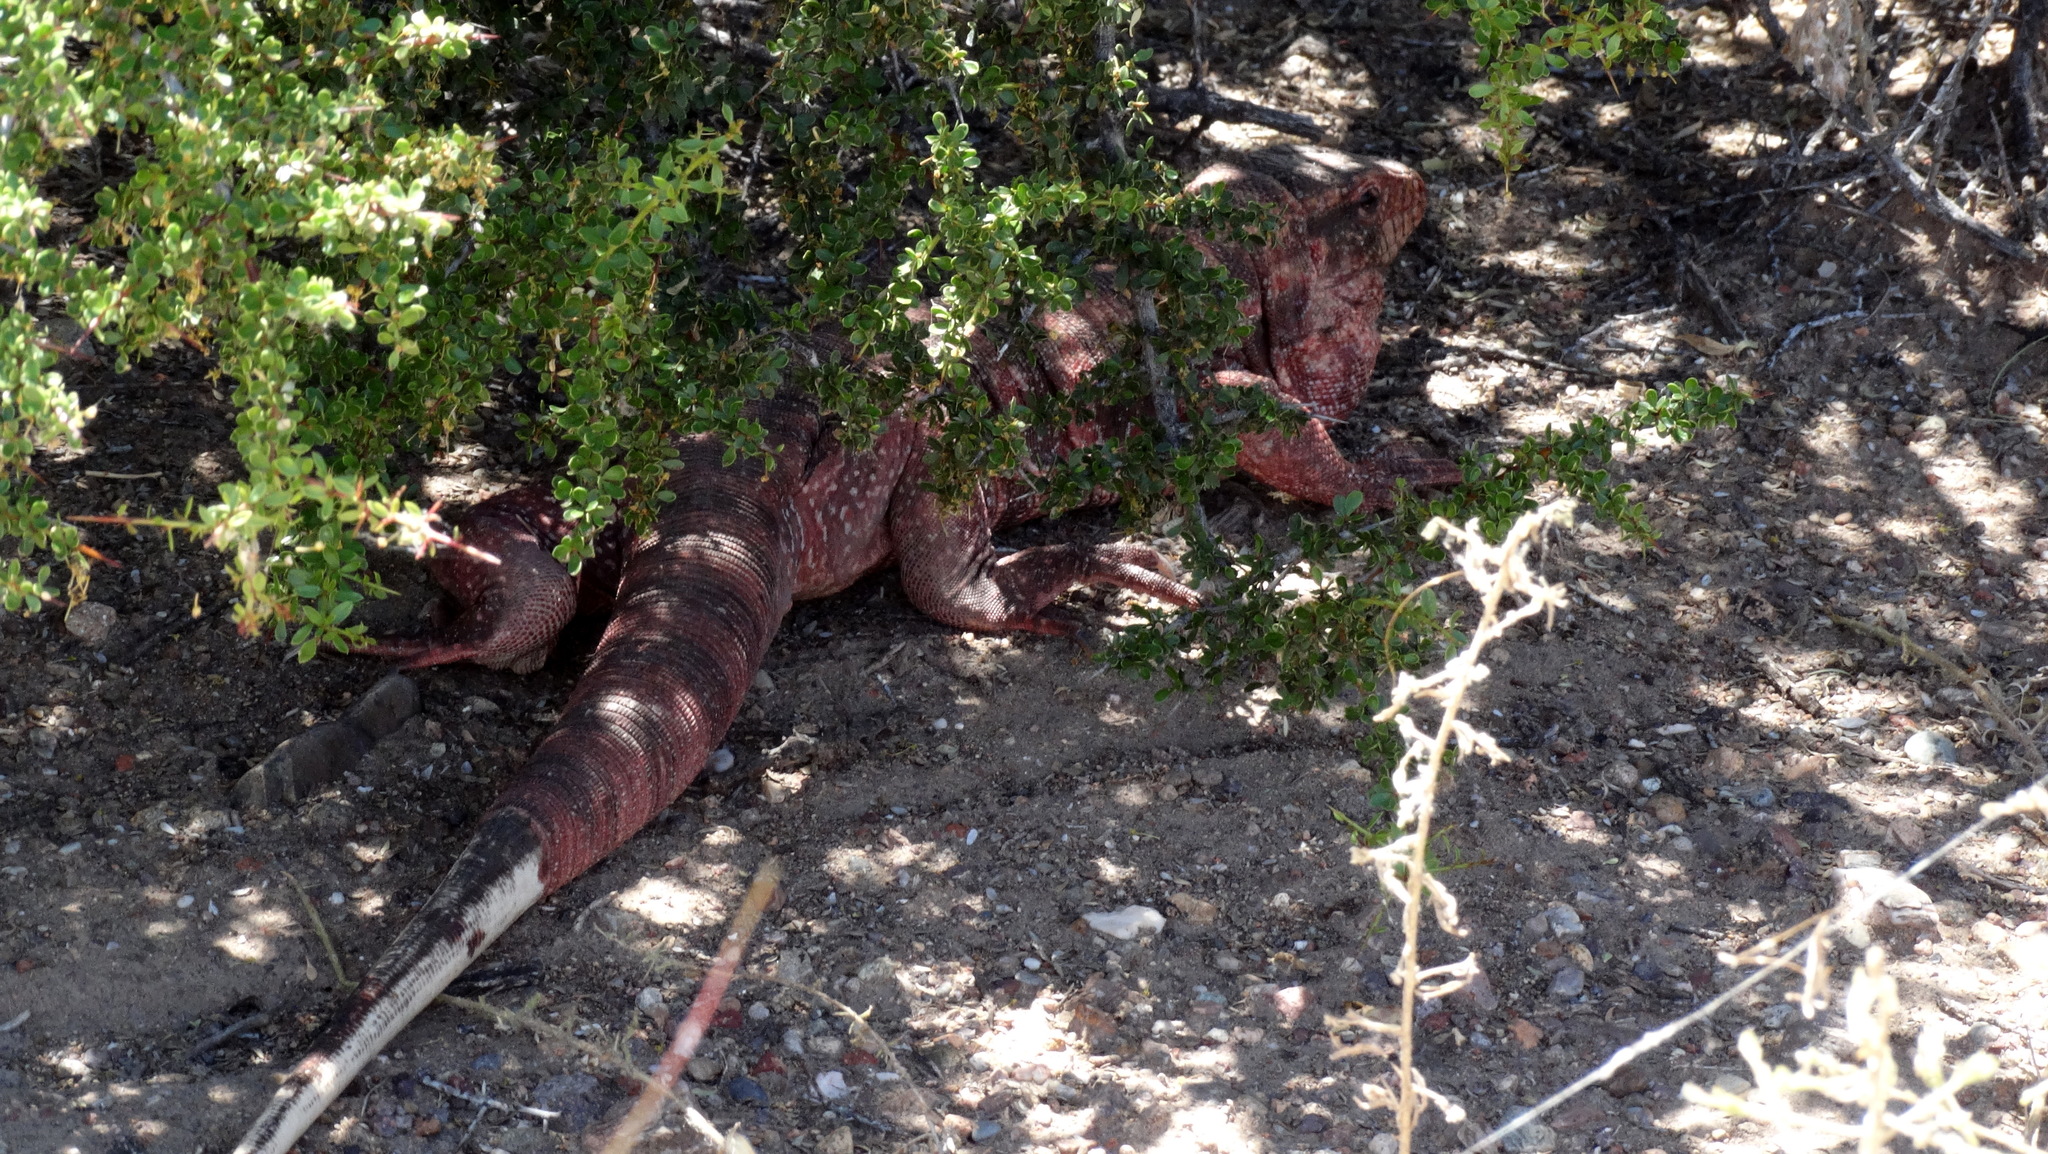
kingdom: Animalia
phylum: Chordata
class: Squamata
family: Teiidae
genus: Salvator
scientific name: Salvator rufescens
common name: Red tegu
